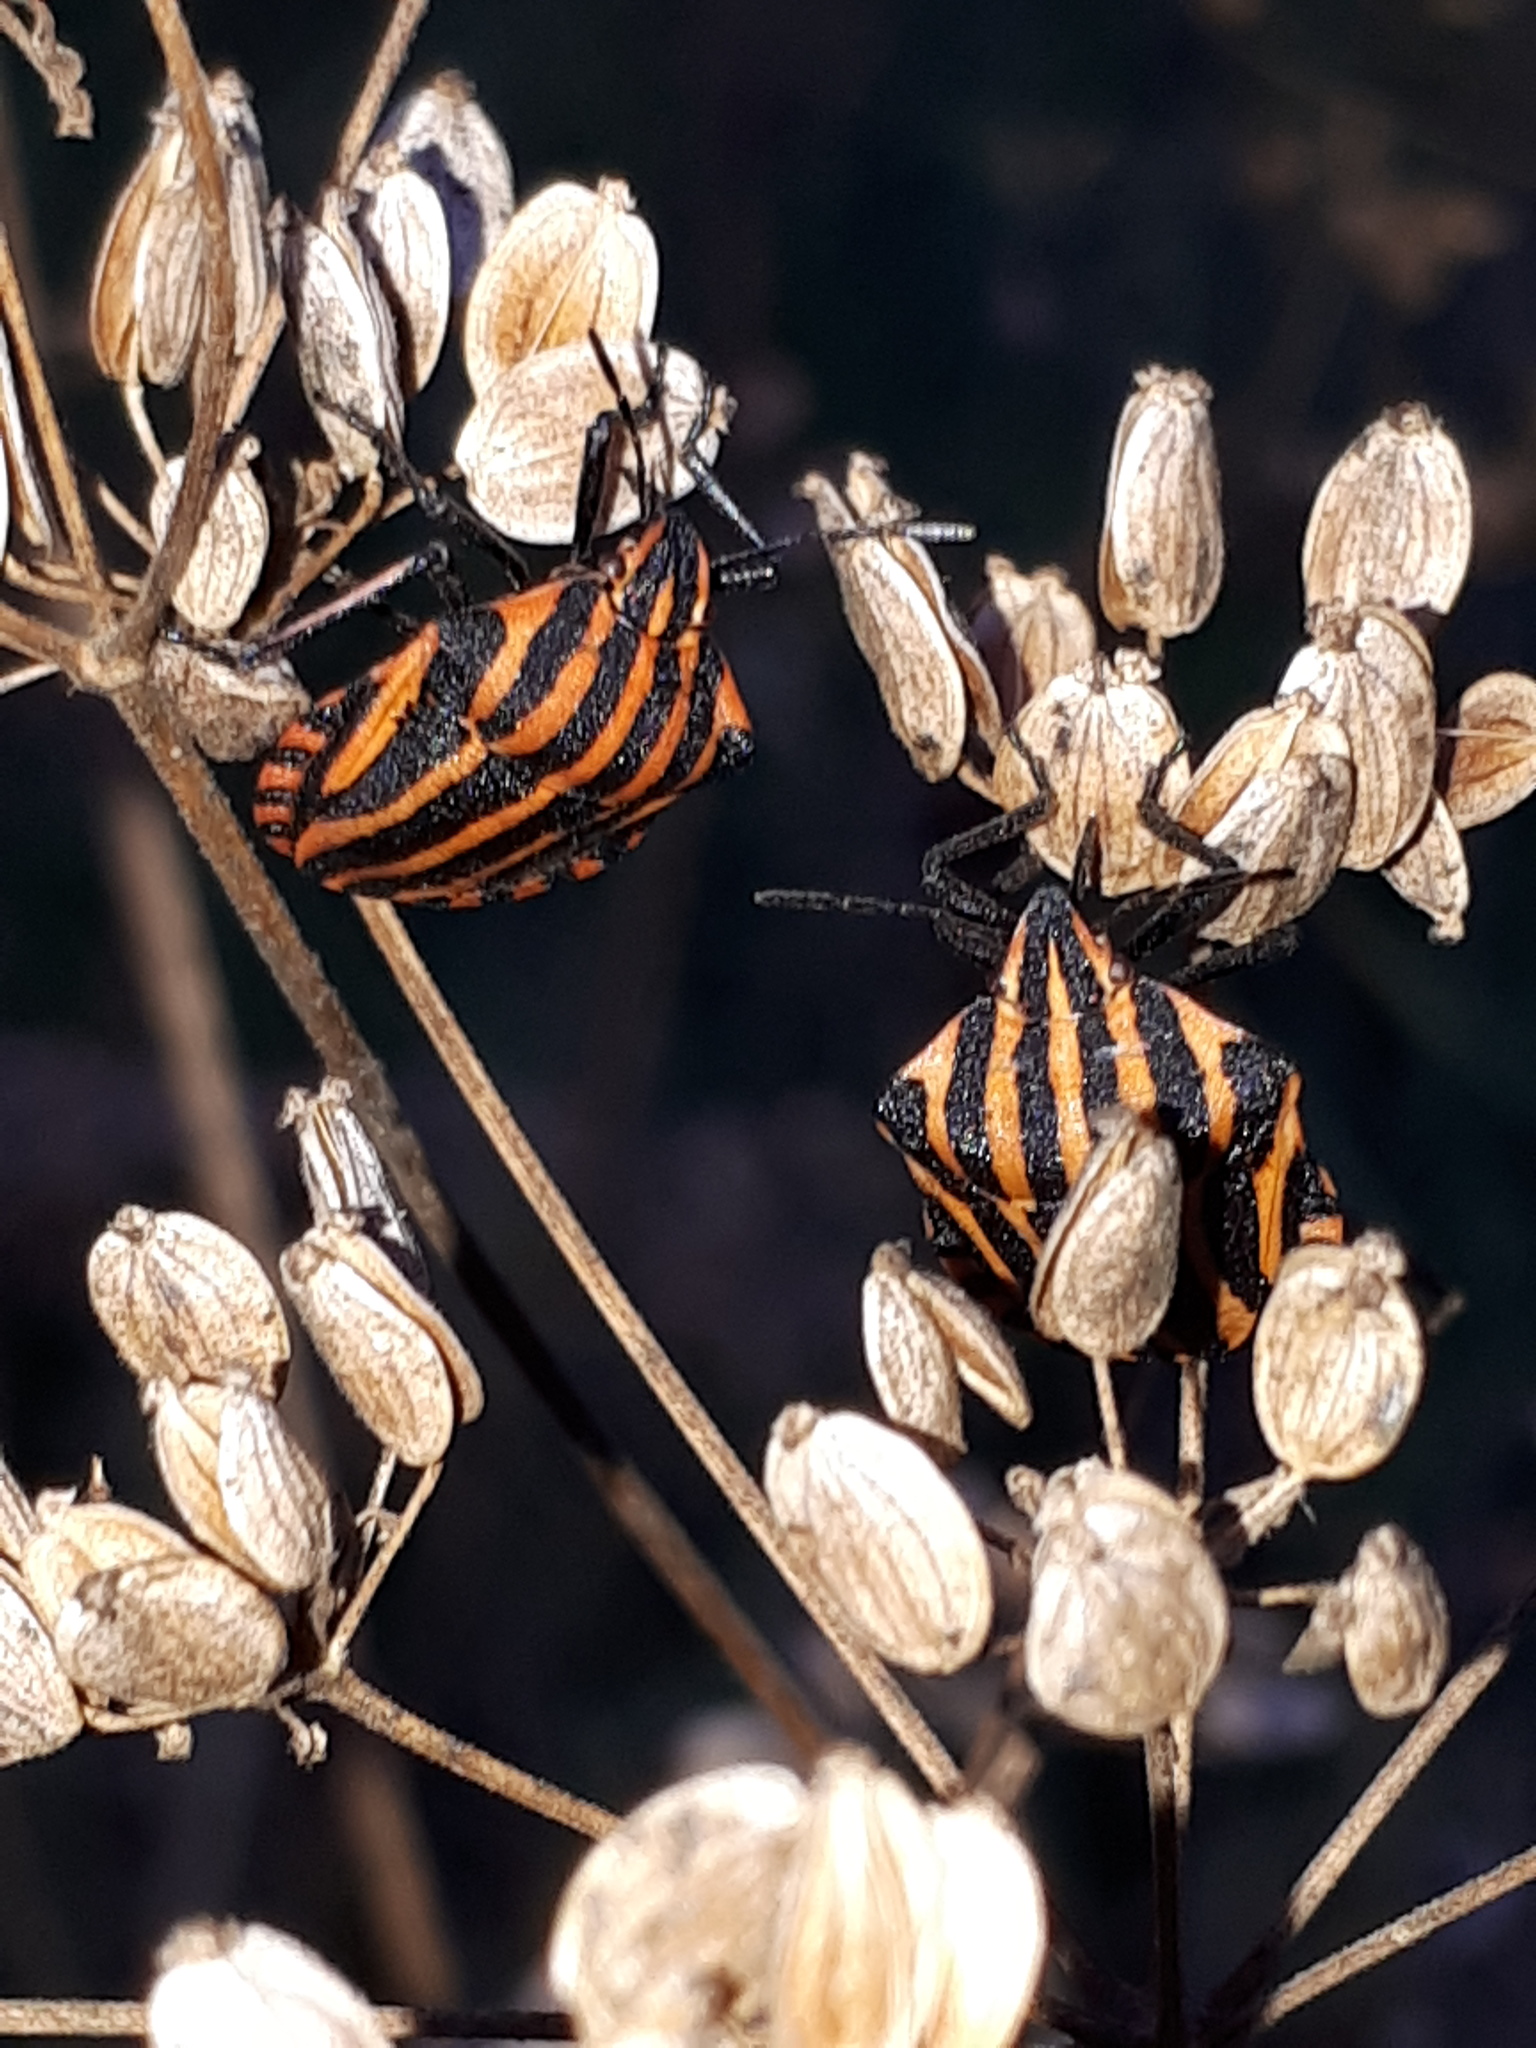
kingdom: Animalia
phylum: Arthropoda
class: Insecta
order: Hemiptera
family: Pentatomidae
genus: Graphosoma
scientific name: Graphosoma italicum
